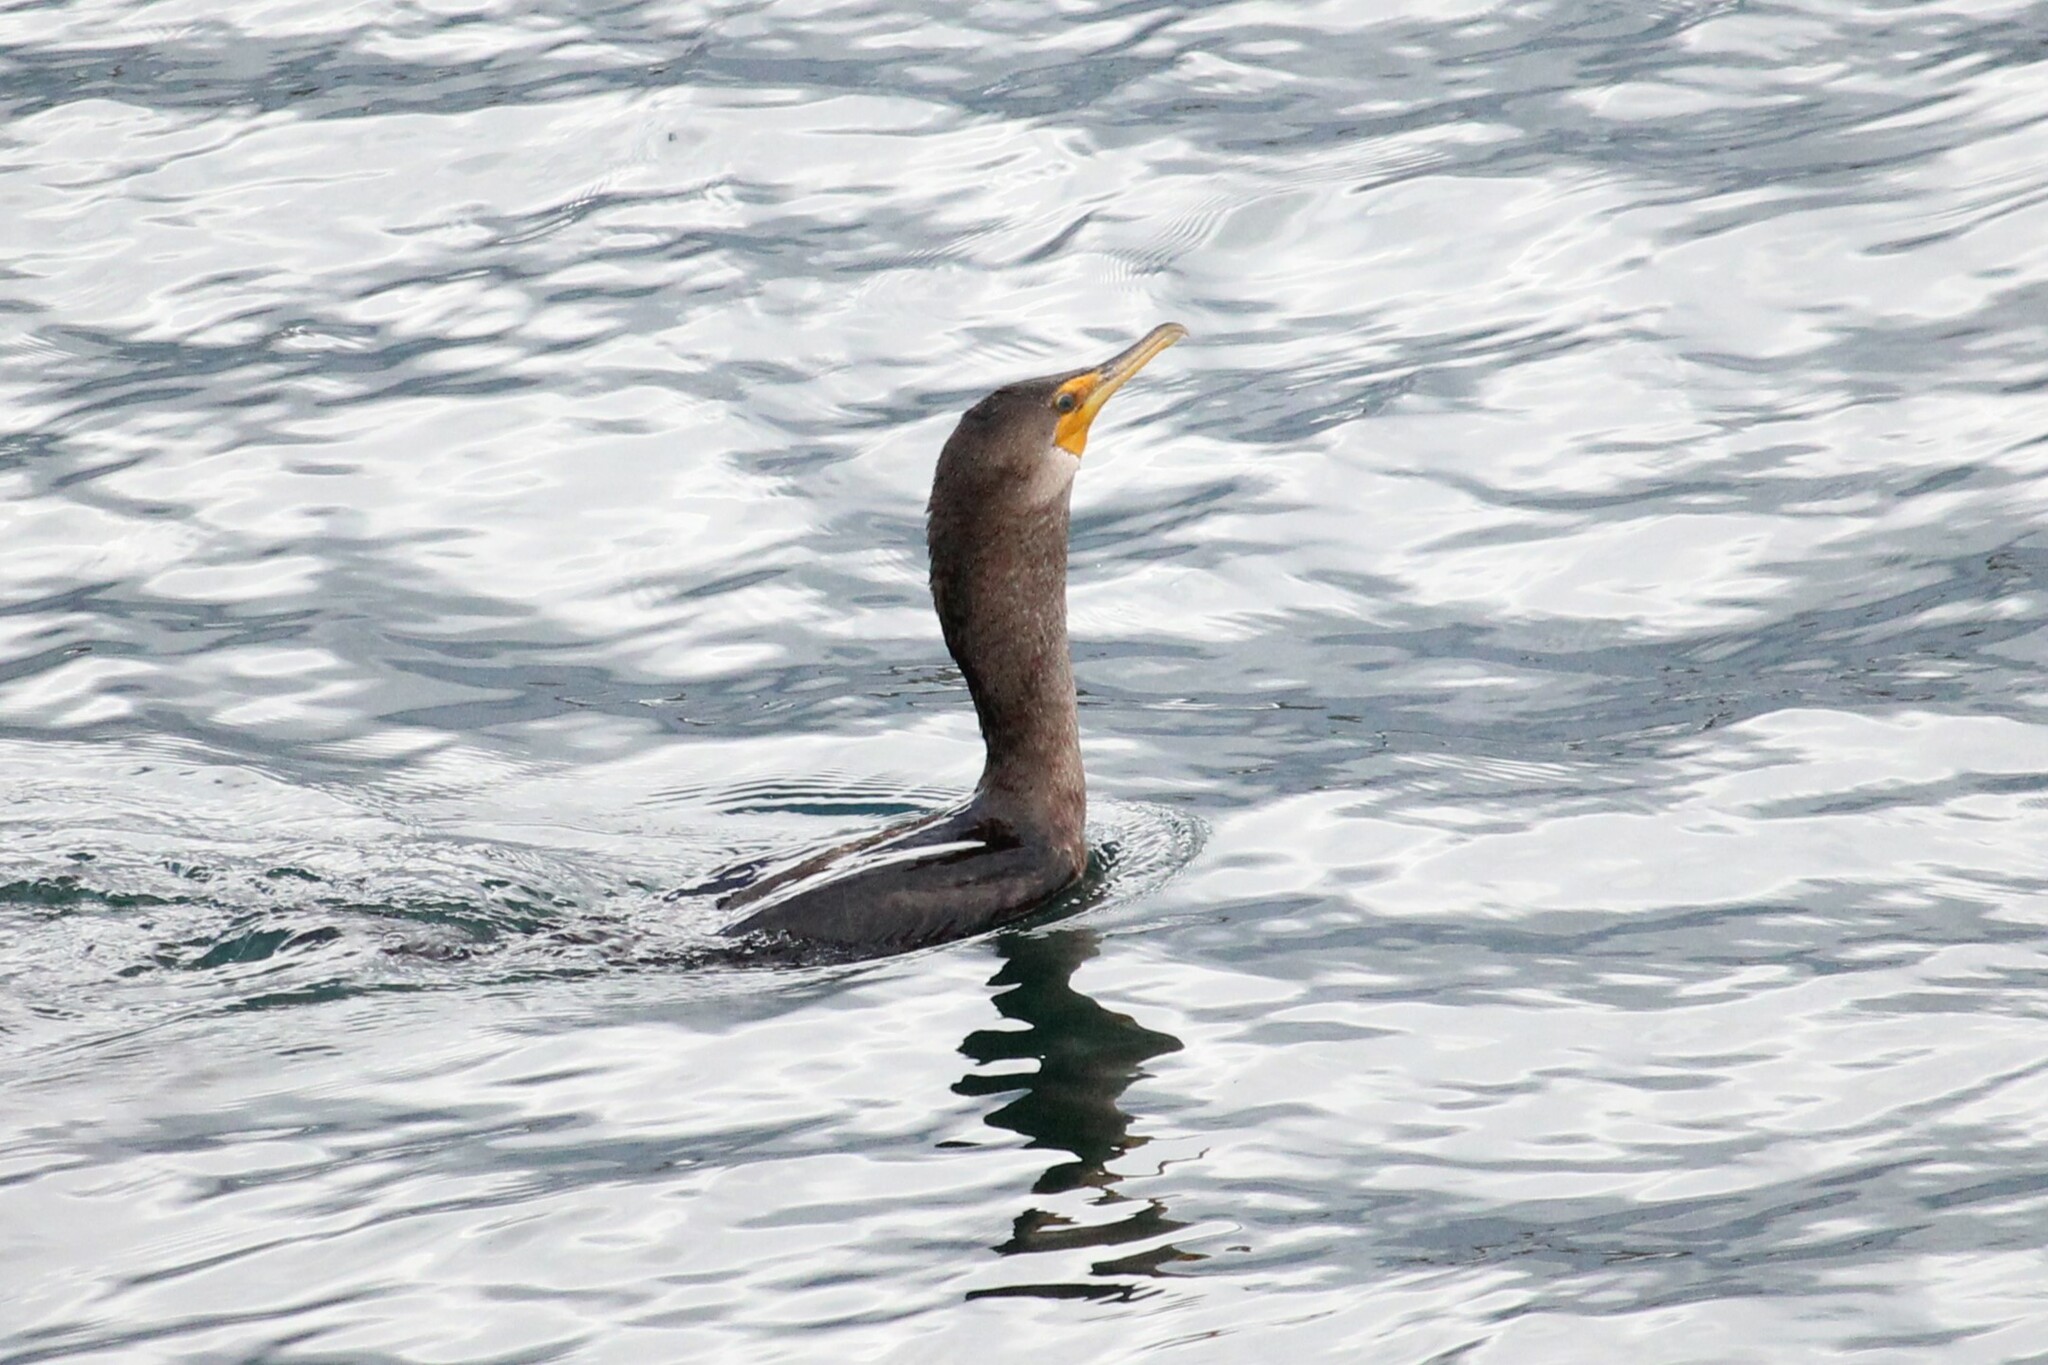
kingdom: Animalia
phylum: Chordata
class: Aves
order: Suliformes
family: Phalacrocoracidae
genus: Phalacrocorax
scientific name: Phalacrocorax auritus
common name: Double-crested cormorant
